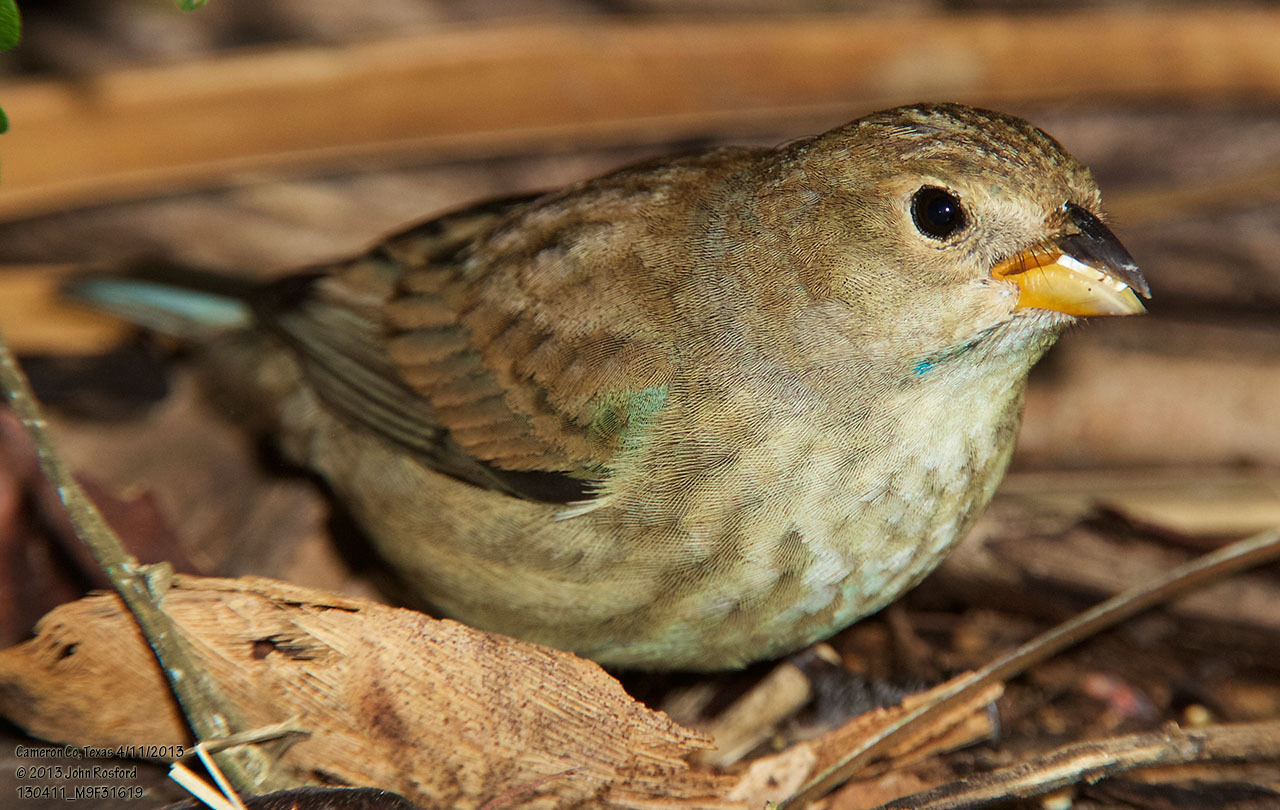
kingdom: Animalia
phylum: Chordata
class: Aves
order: Passeriformes
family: Cardinalidae
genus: Passerina
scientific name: Passerina cyanea
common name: Indigo bunting
